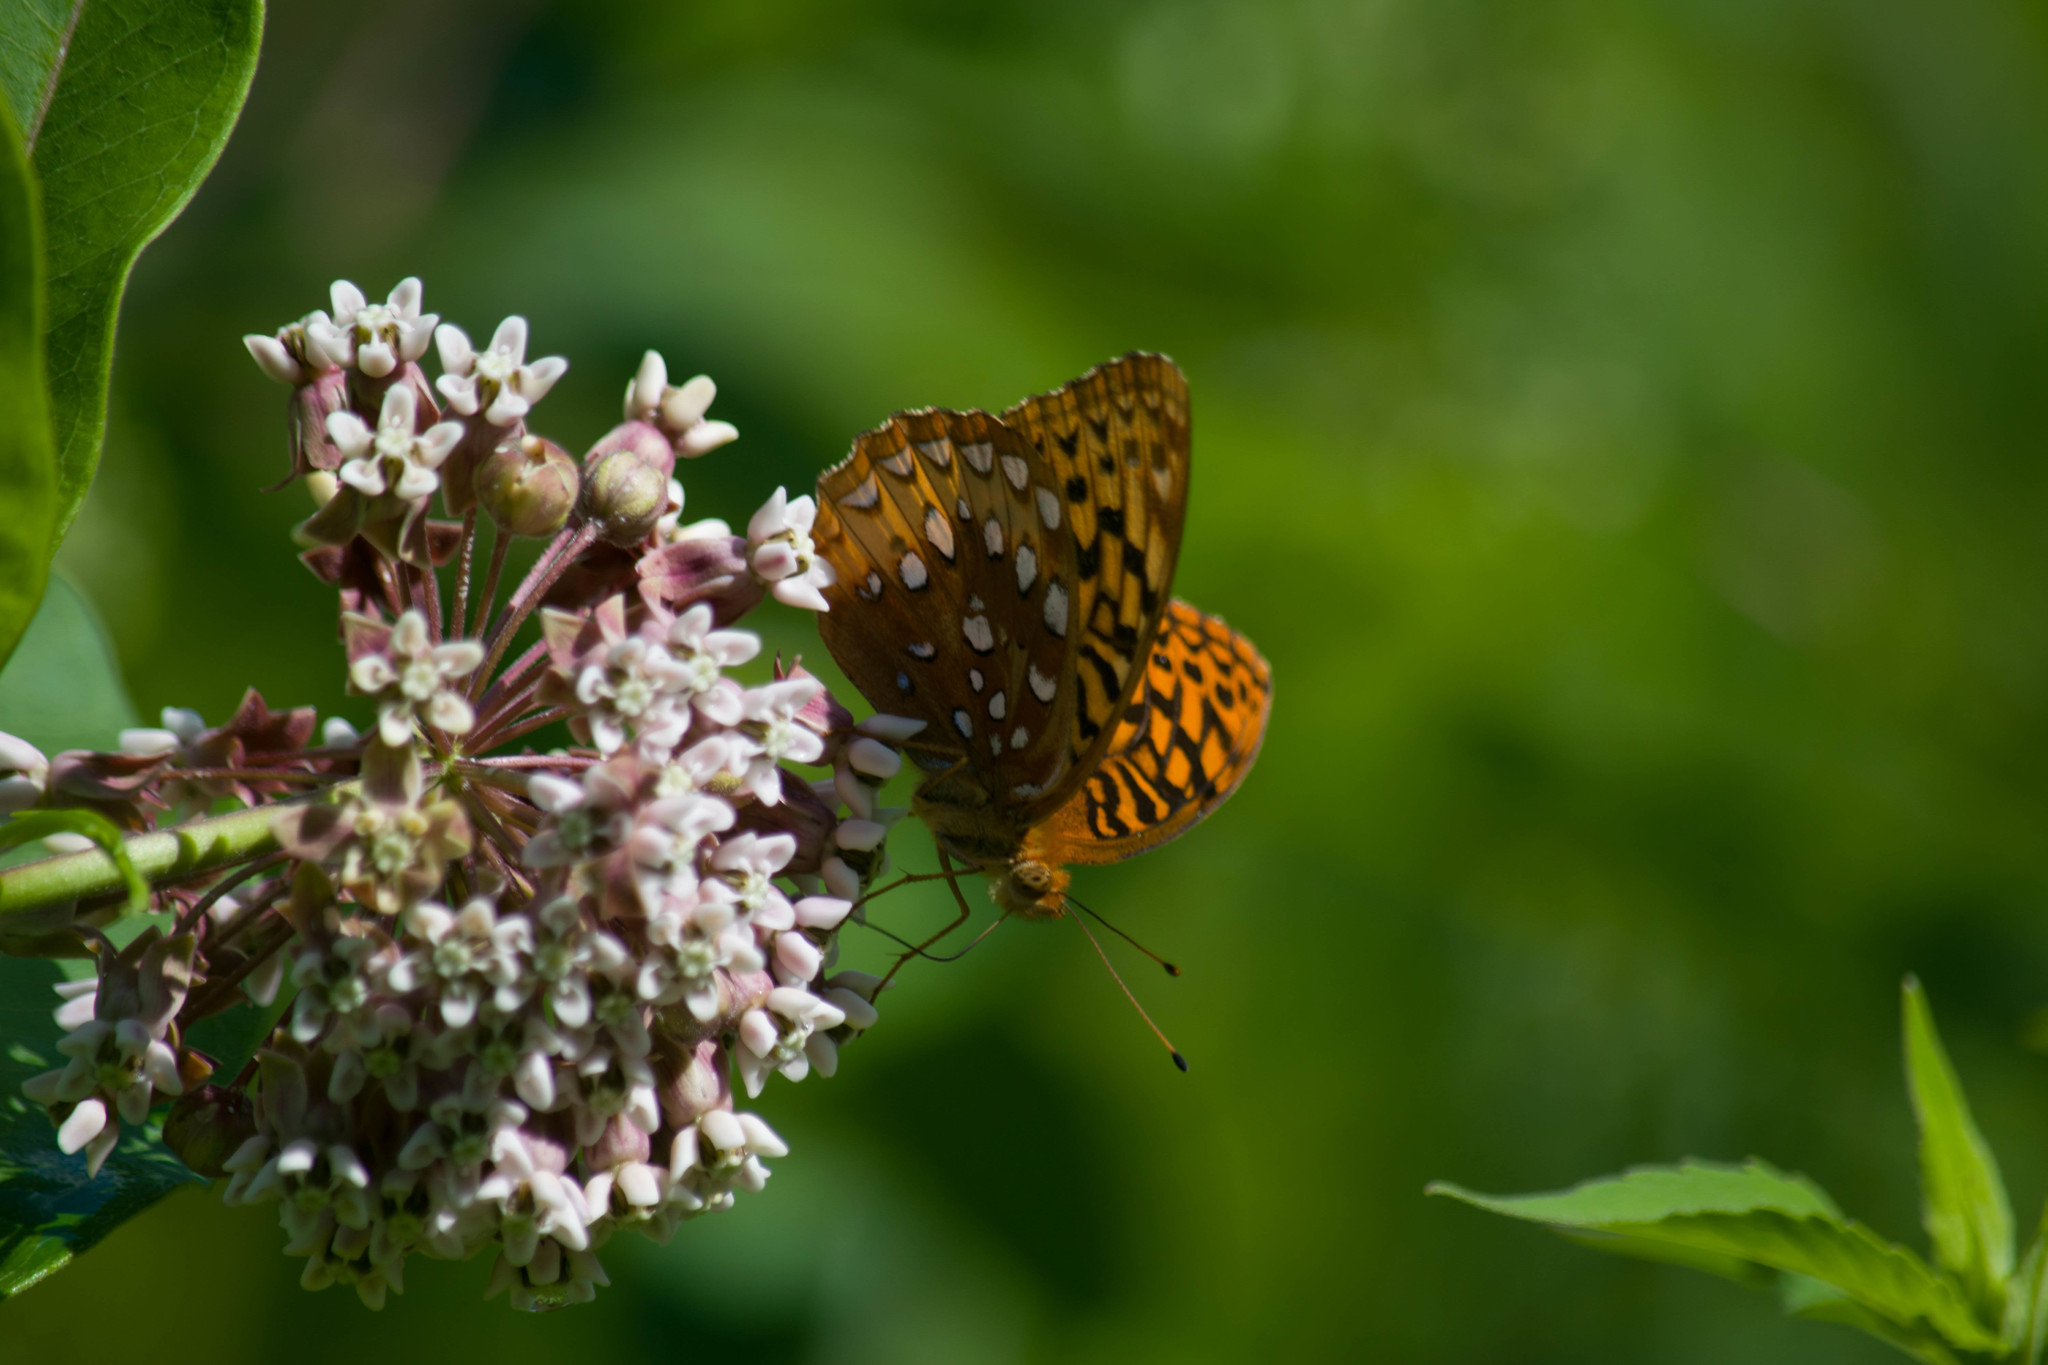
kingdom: Animalia
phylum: Arthropoda
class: Insecta
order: Lepidoptera
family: Nymphalidae
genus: Speyeria
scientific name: Speyeria cybele
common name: Great spangled fritillary
